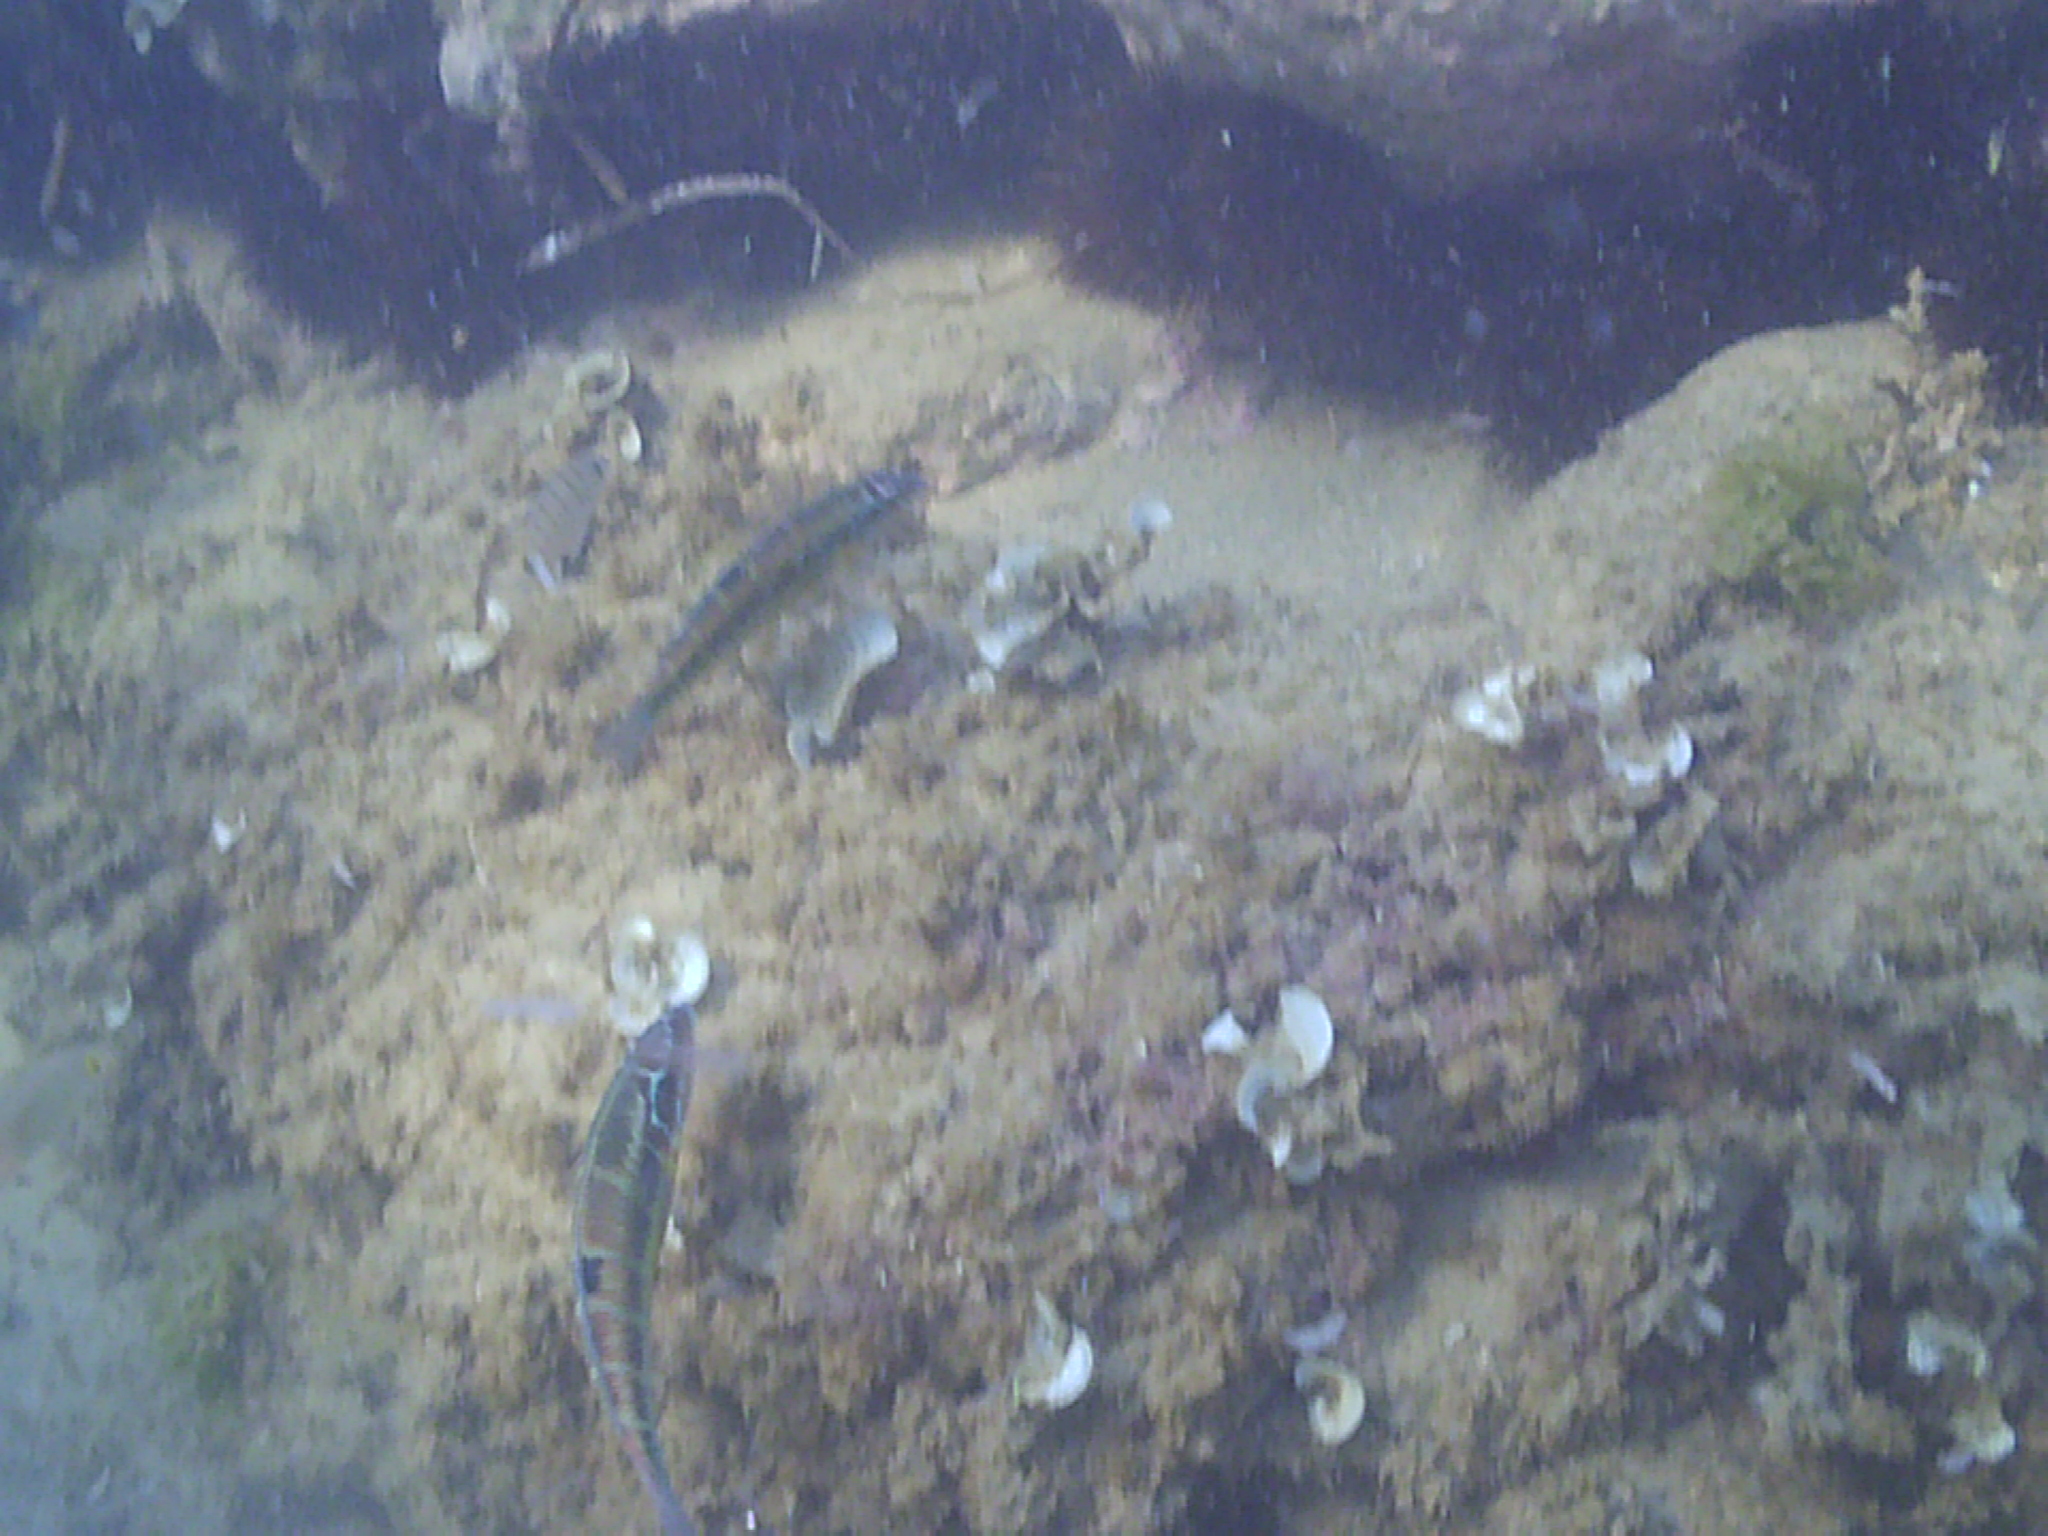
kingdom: Animalia
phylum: Chordata
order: Perciformes
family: Labridae
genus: Thalassoma
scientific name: Thalassoma pavo
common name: Ornate wrasse
